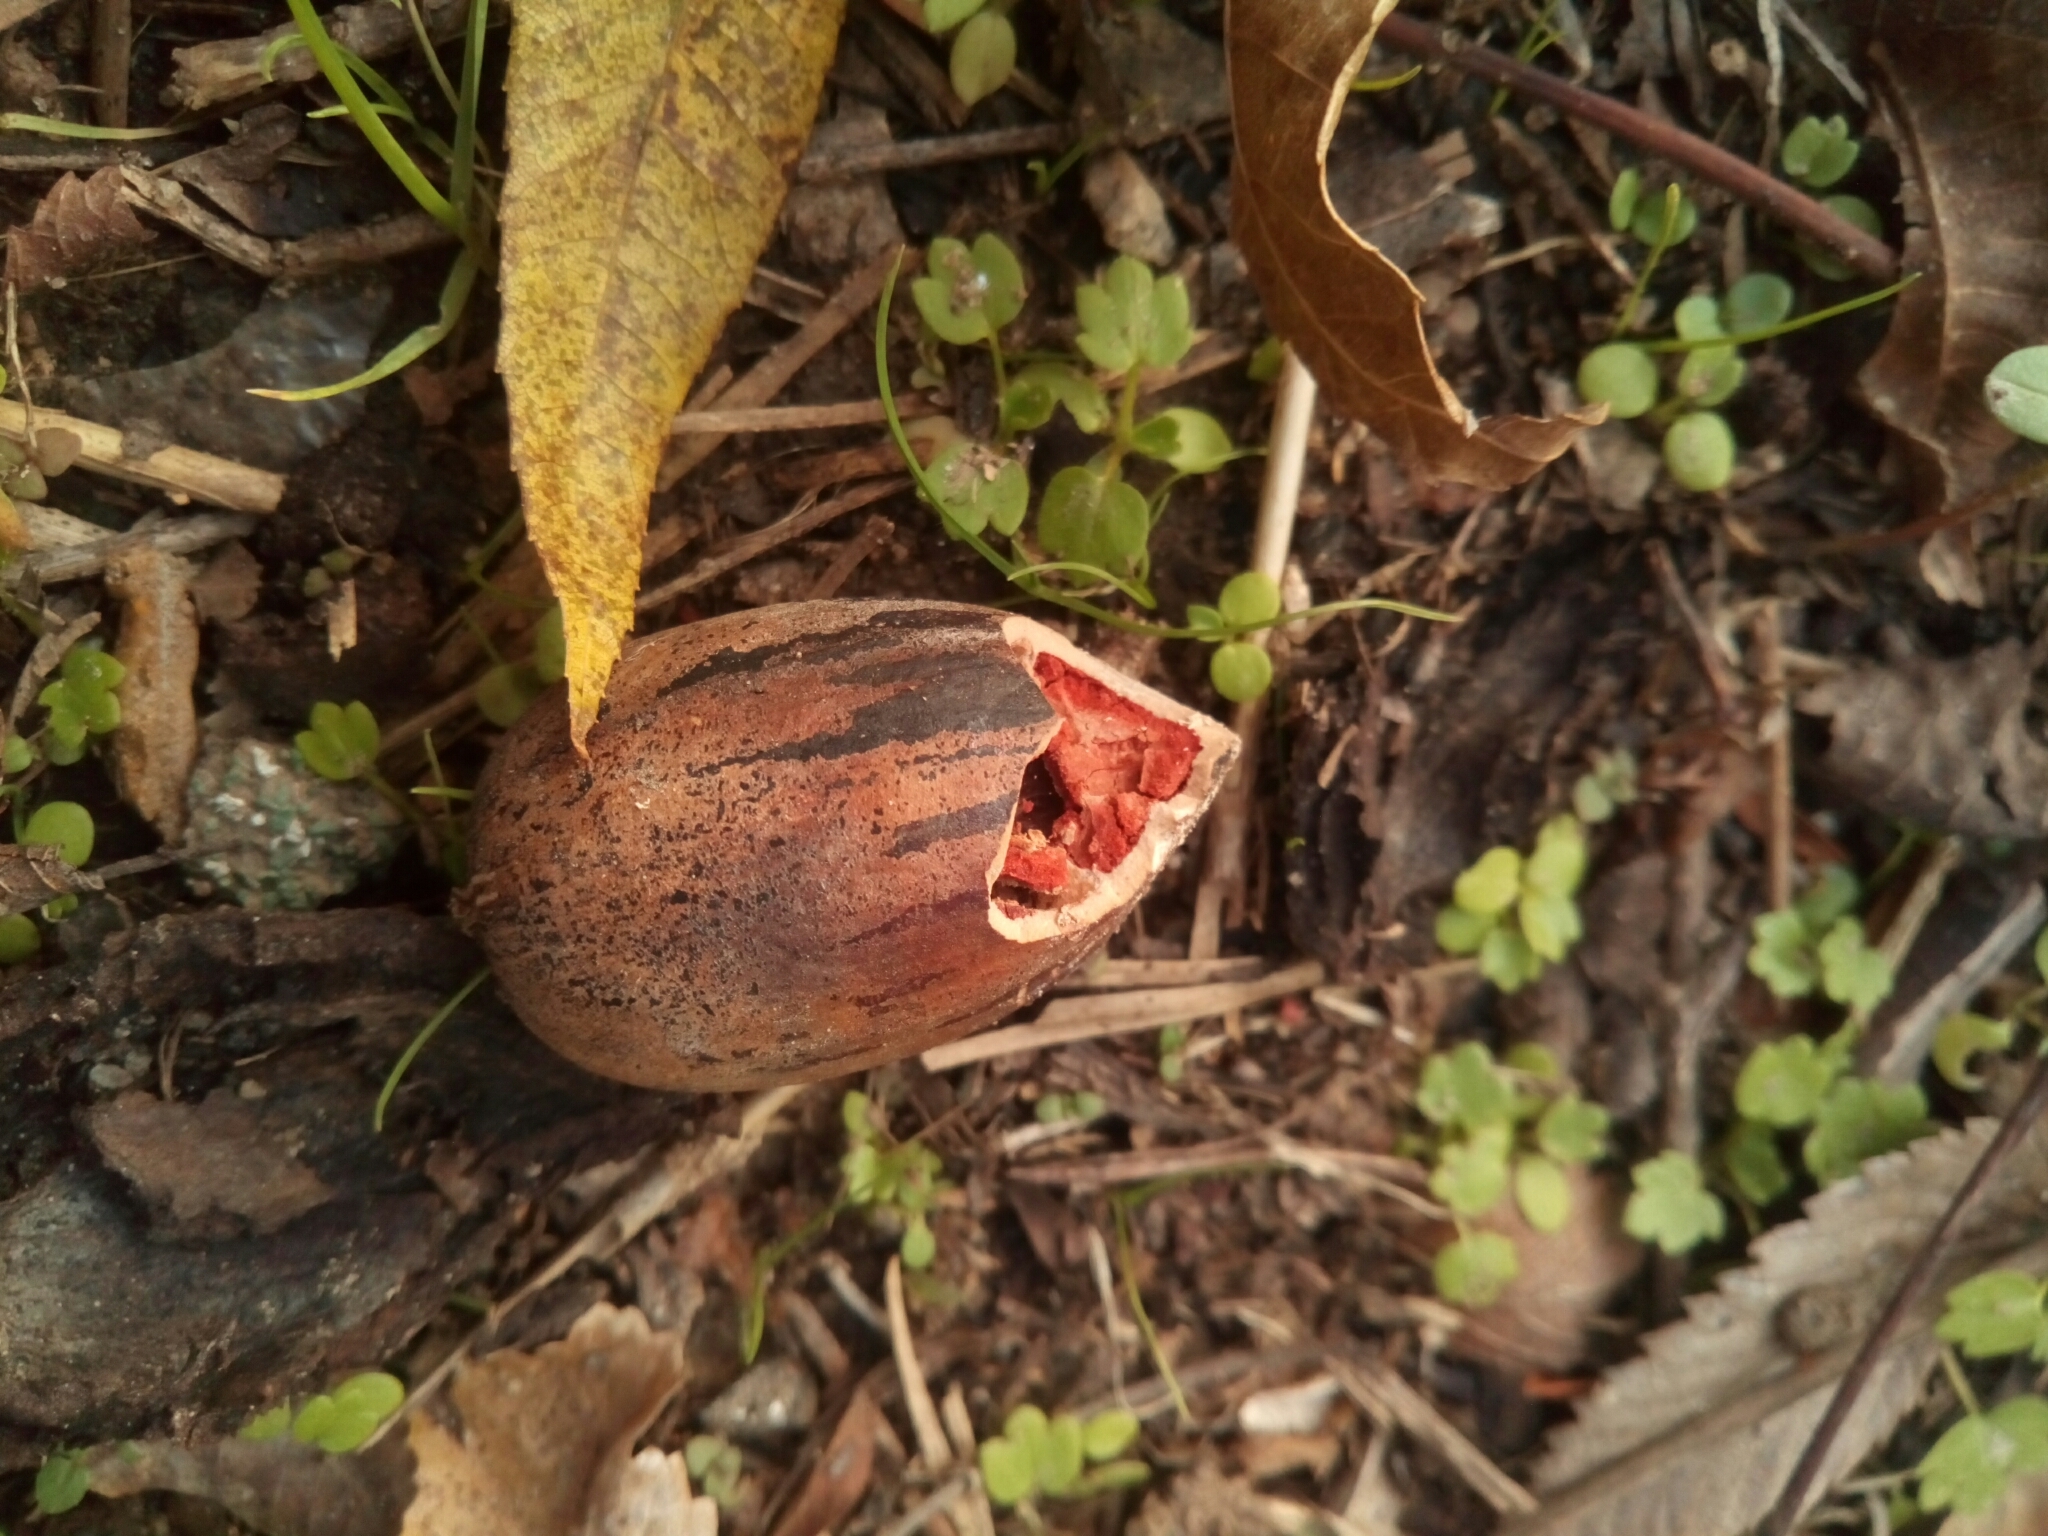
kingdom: Plantae
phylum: Tracheophyta
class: Magnoliopsida
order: Fagales
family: Juglandaceae
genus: Carya
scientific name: Carya illinoinensis
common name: Pecan
